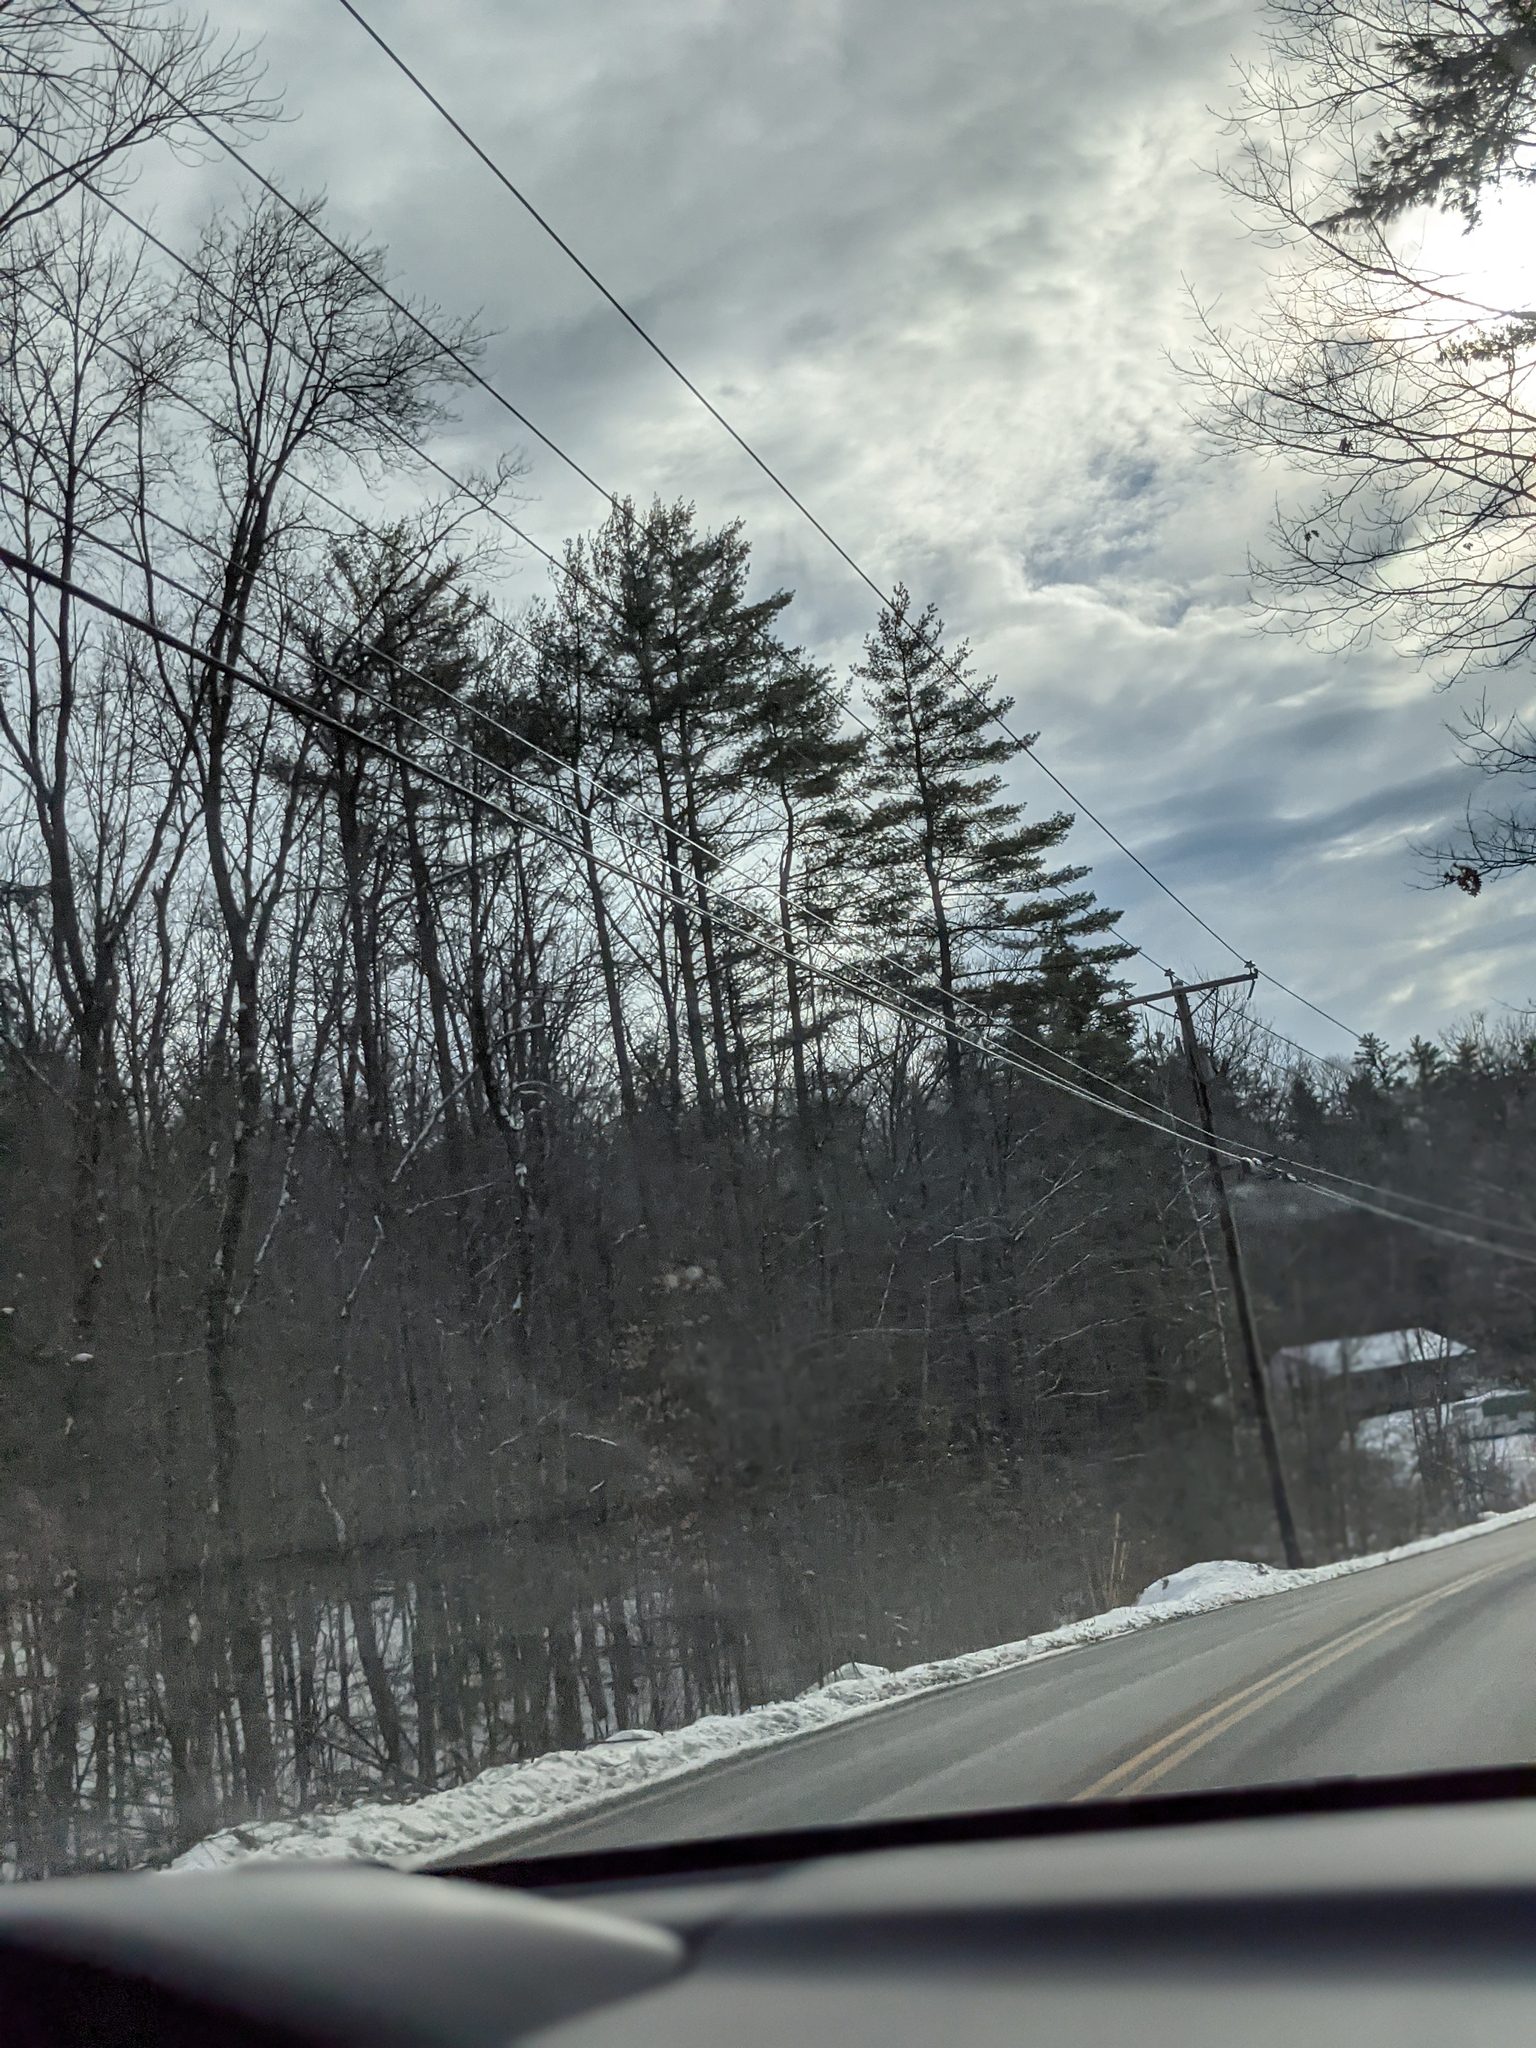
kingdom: Plantae
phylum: Tracheophyta
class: Pinopsida
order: Pinales
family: Pinaceae
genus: Pinus
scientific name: Pinus strobus
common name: Weymouth pine
